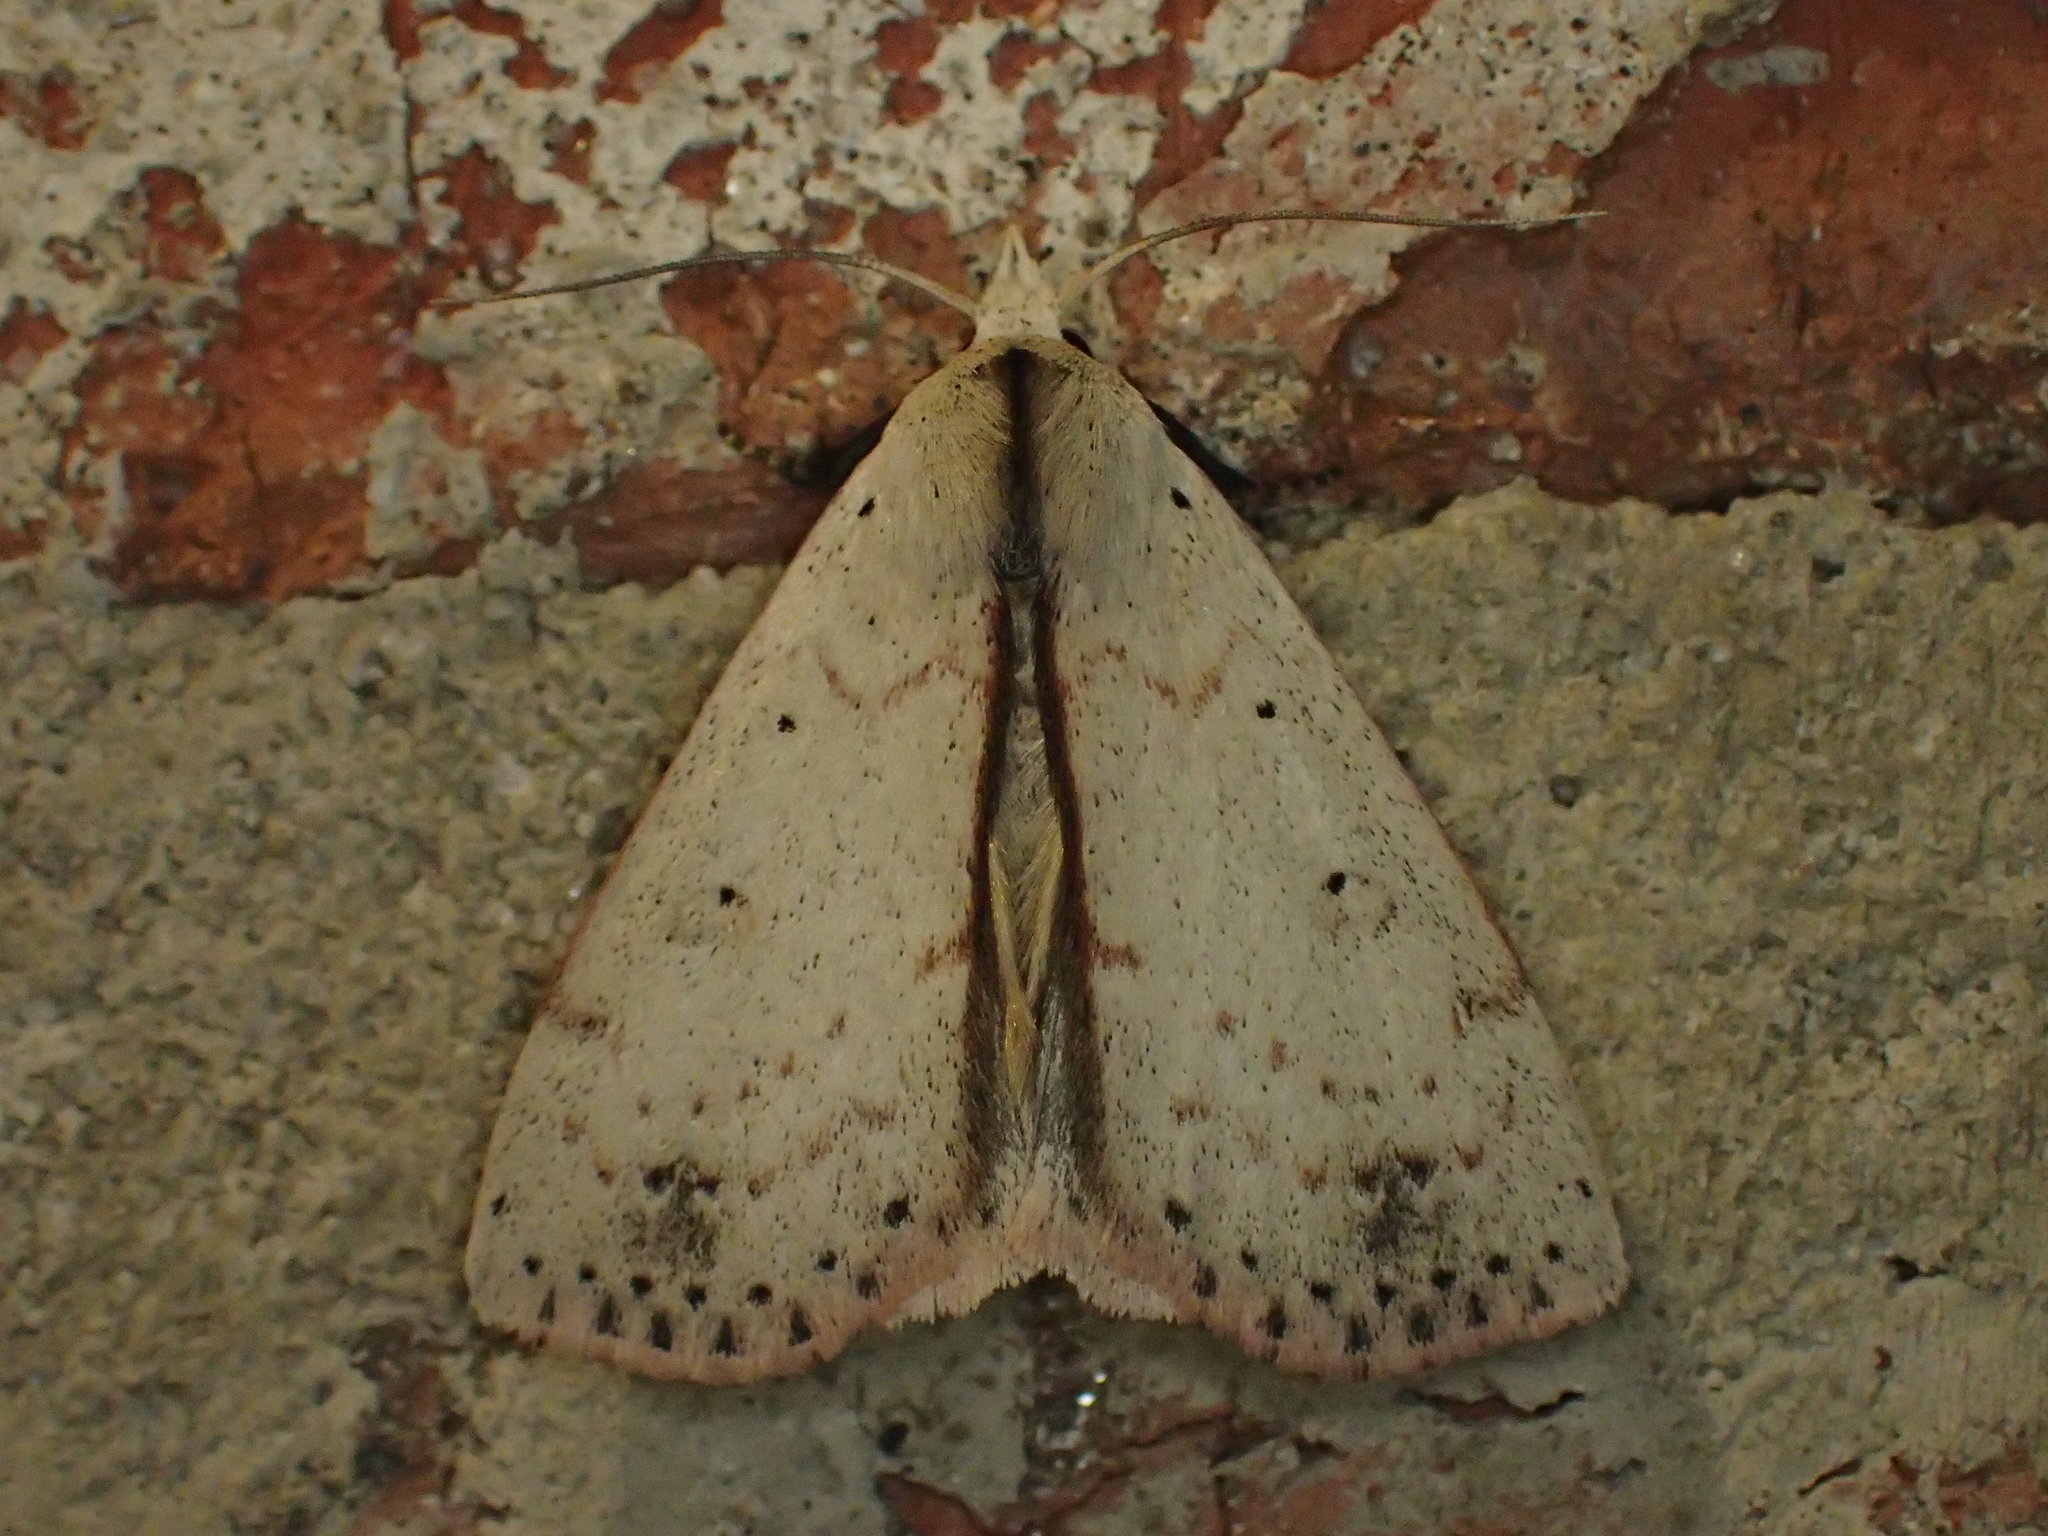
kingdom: Animalia
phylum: Arthropoda
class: Insecta
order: Lepidoptera
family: Erebidae
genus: Scolecocampa
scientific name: Scolecocampa liburna
